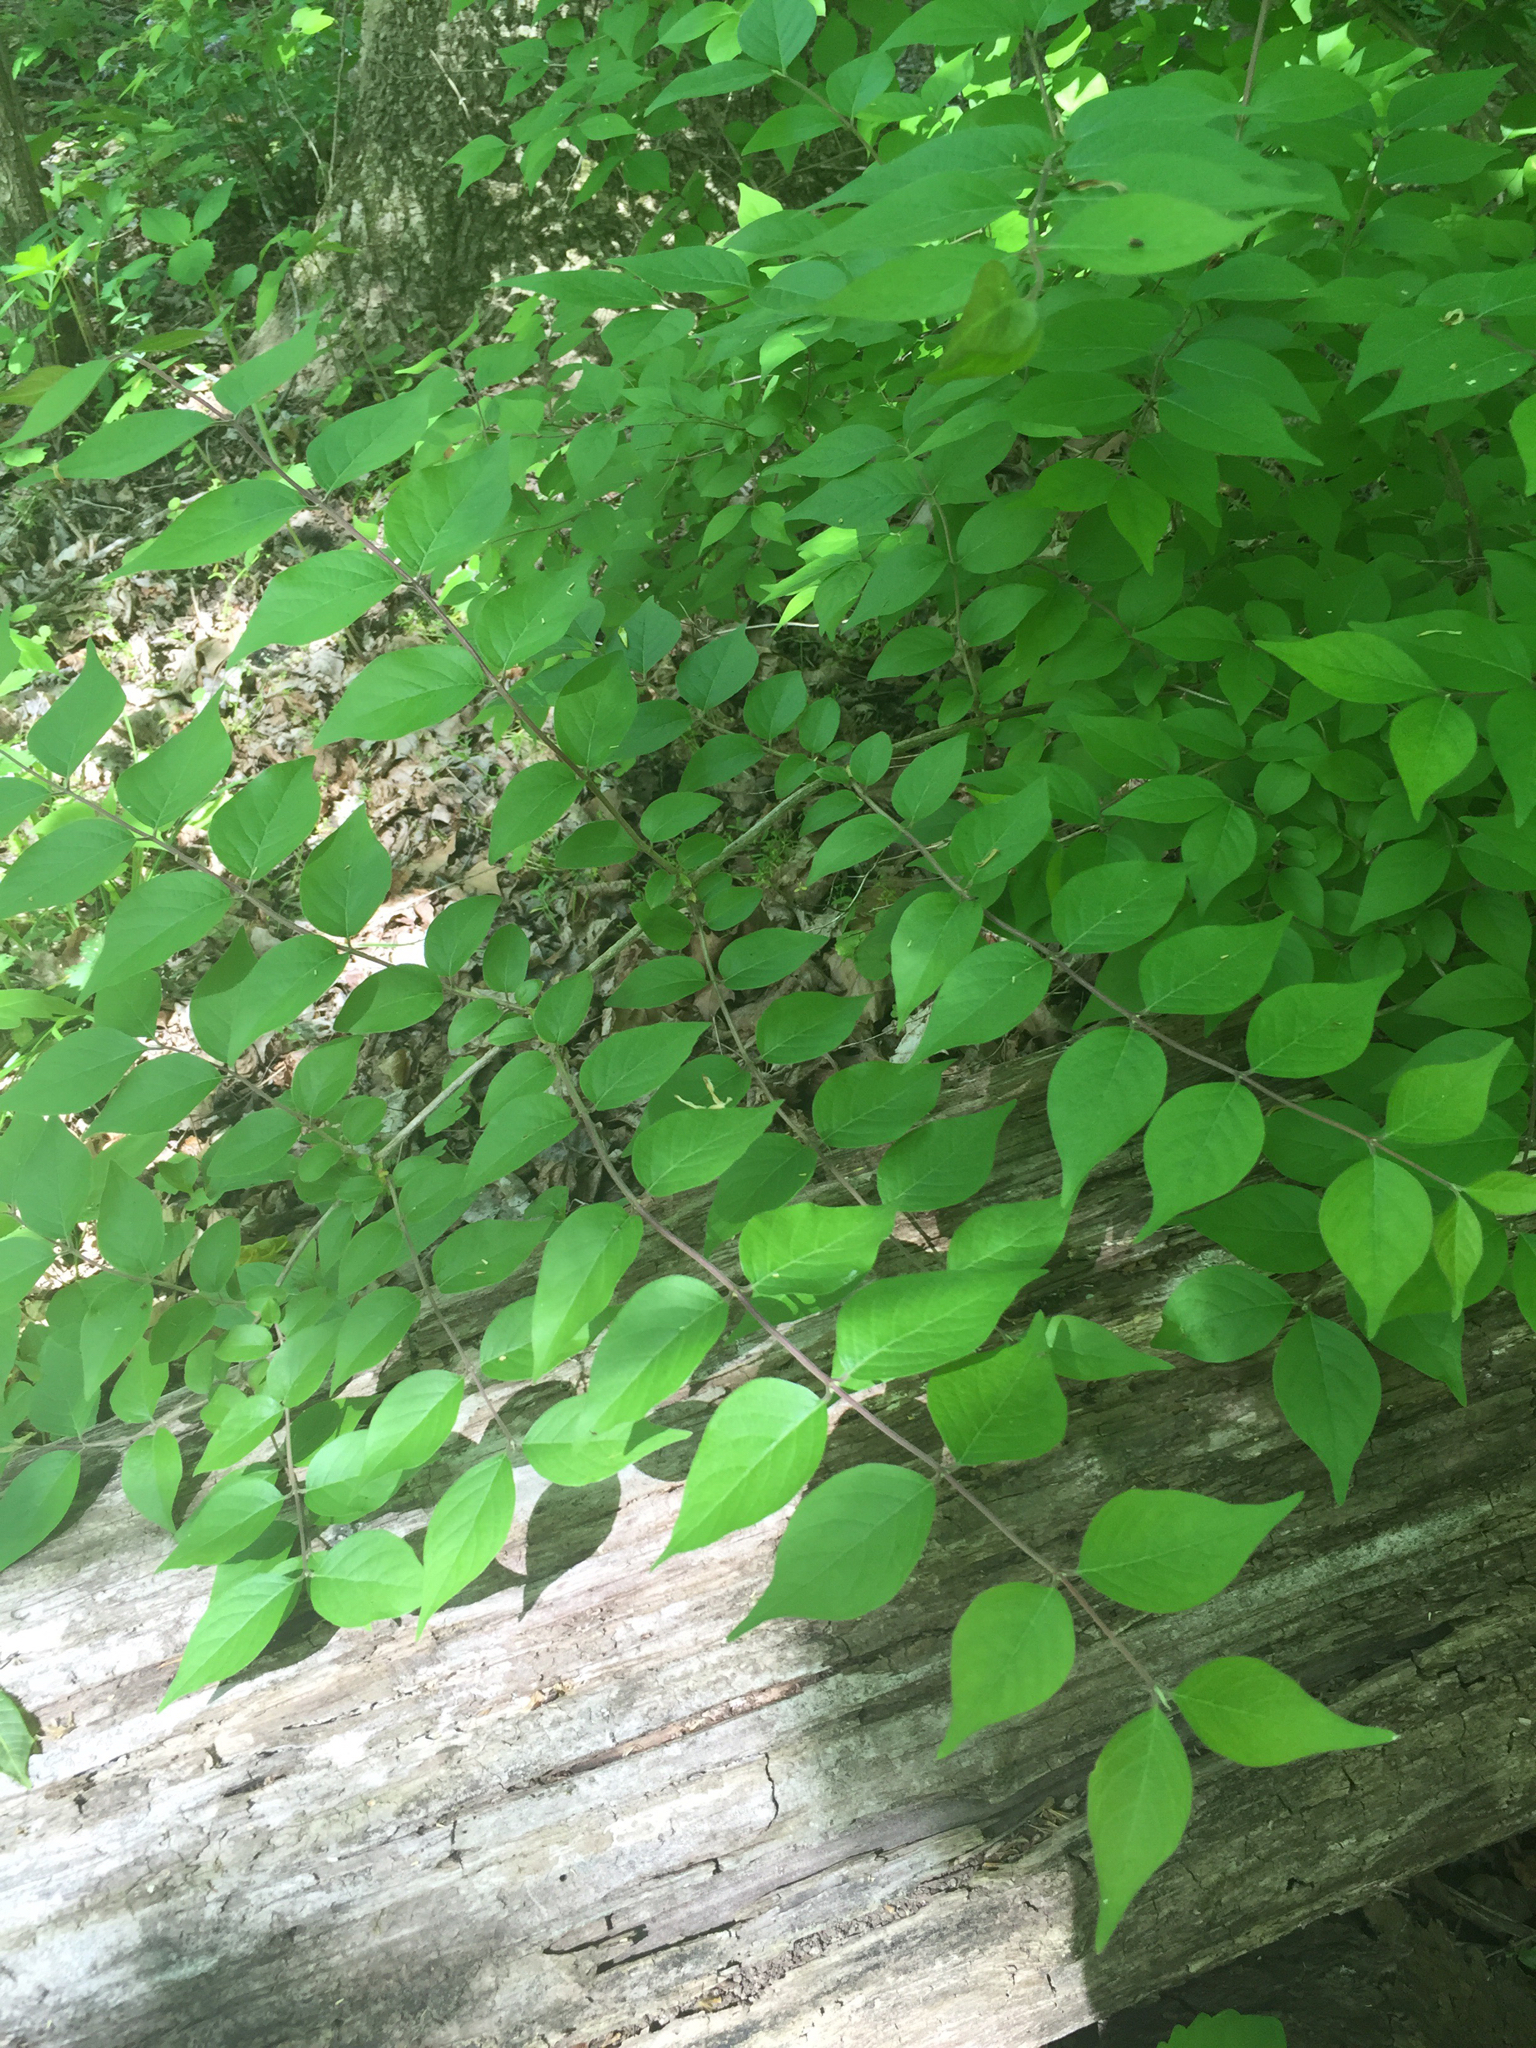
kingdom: Plantae
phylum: Tracheophyta
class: Magnoliopsida
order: Dipsacales
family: Caprifoliaceae
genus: Lonicera
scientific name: Lonicera maackii
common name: Amur honeysuckle
